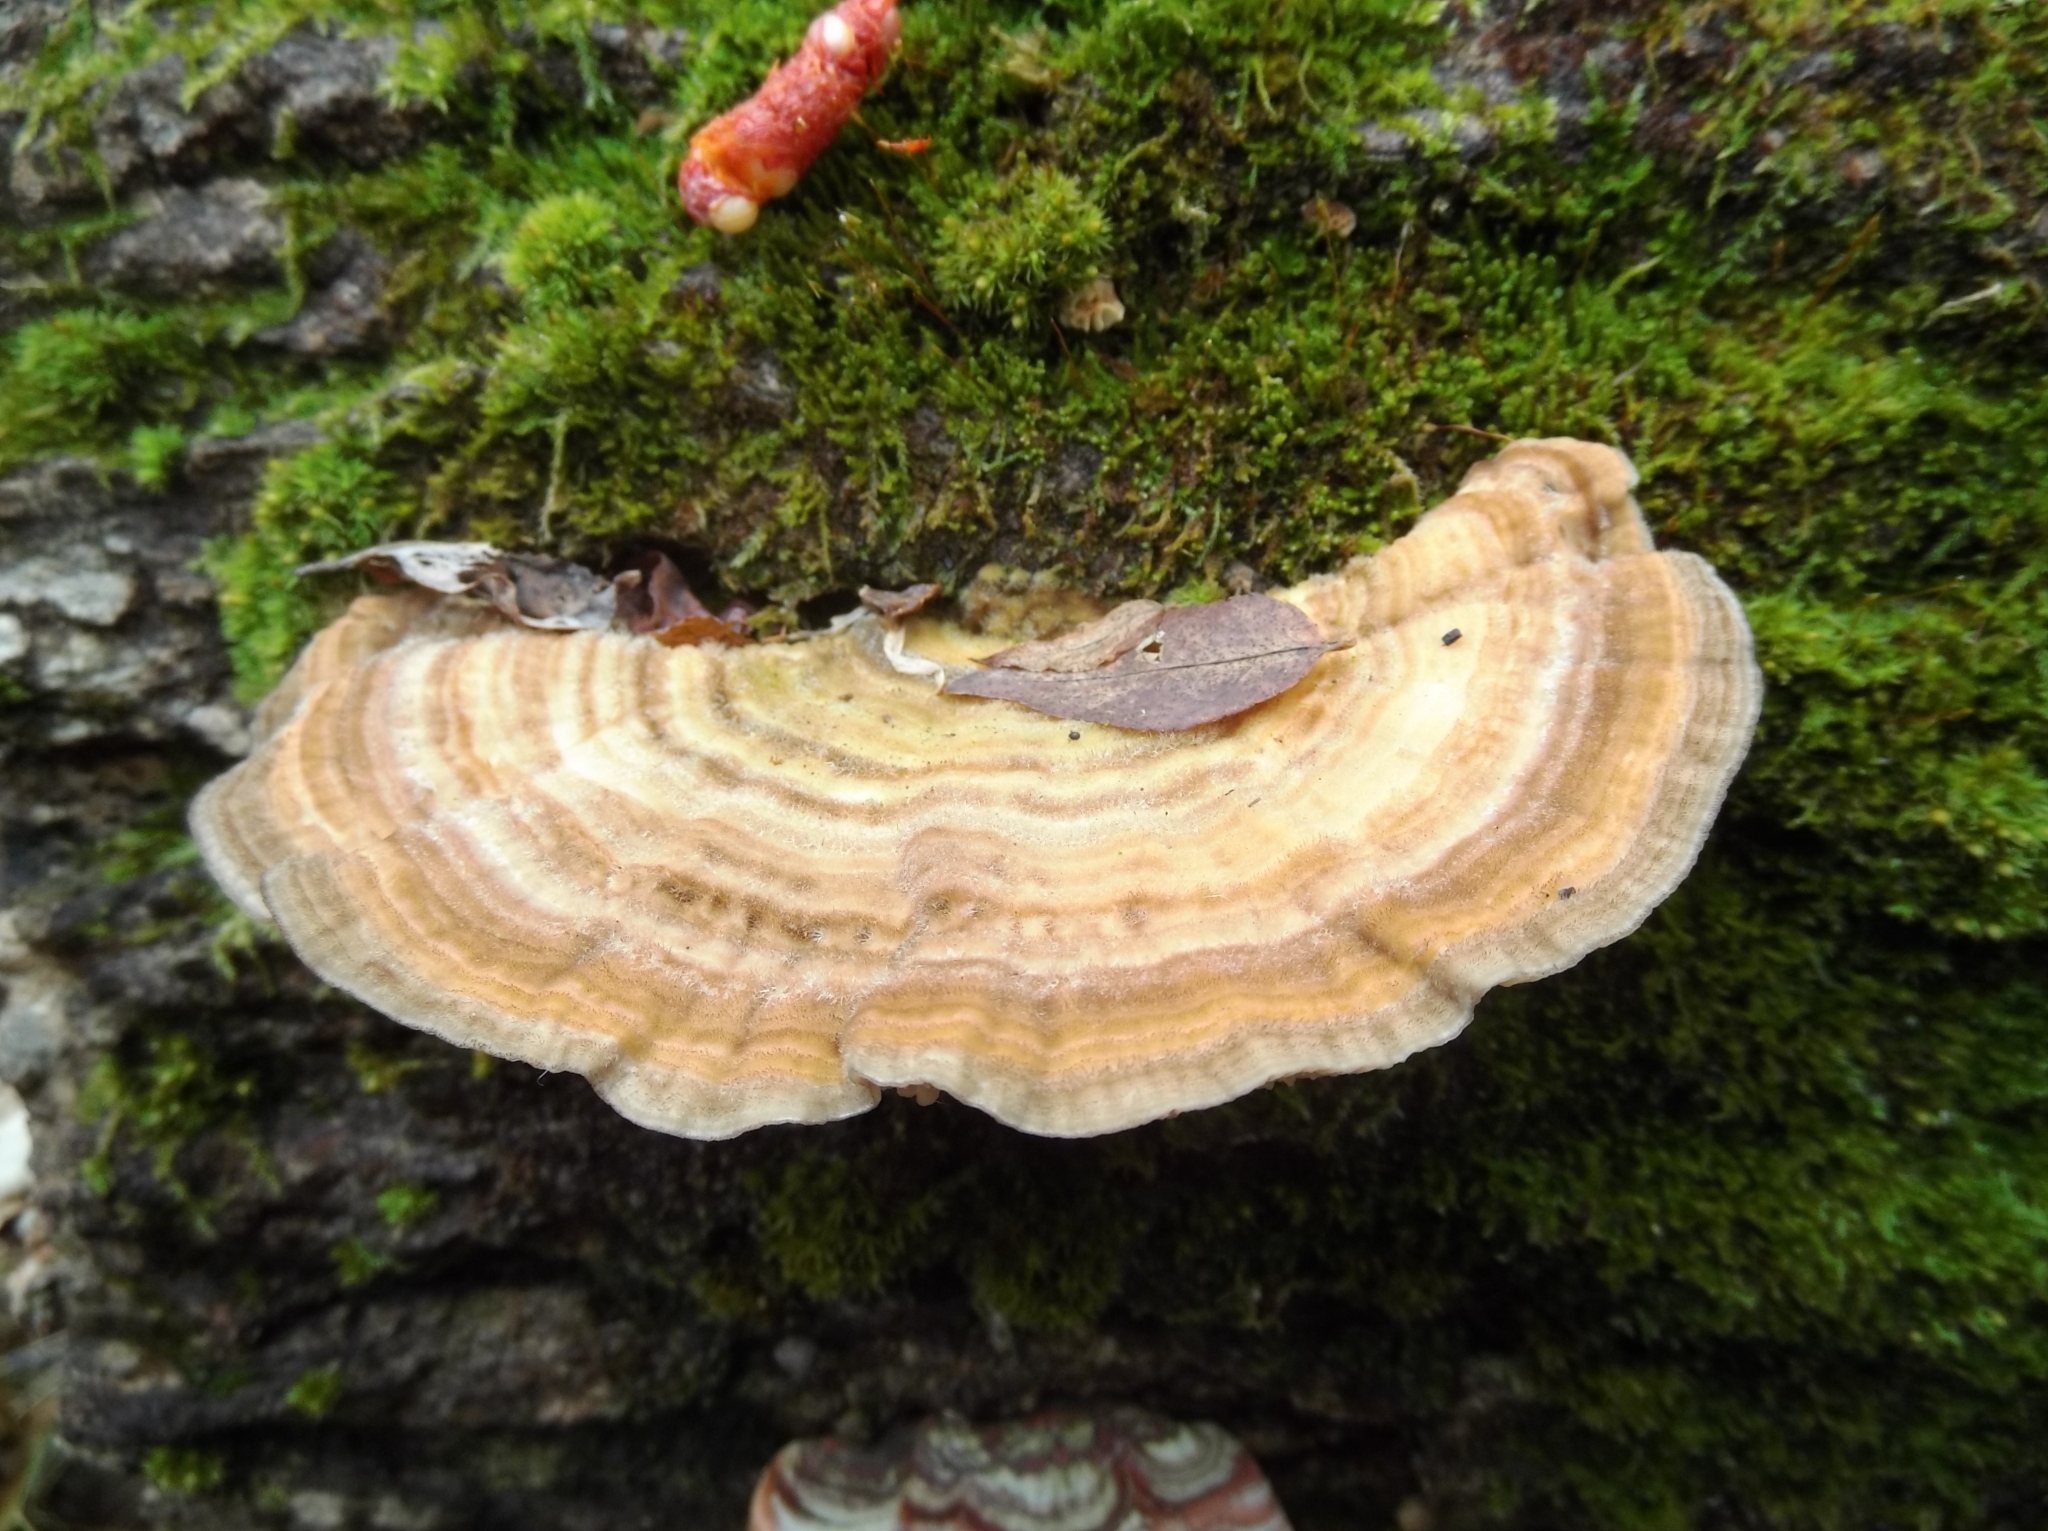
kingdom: Fungi
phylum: Basidiomycota
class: Agaricomycetes
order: Polyporales
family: Polyporaceae
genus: Lenzites
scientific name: Lenzites betulinus
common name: Birch mazegill
